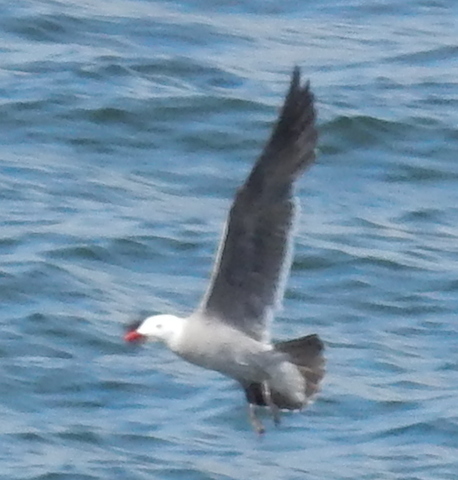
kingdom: Animalia
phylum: Chordata
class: Aves
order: Charadriiformes
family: Laridae
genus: Larus
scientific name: Larus heermanni
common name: Heermann's gull
